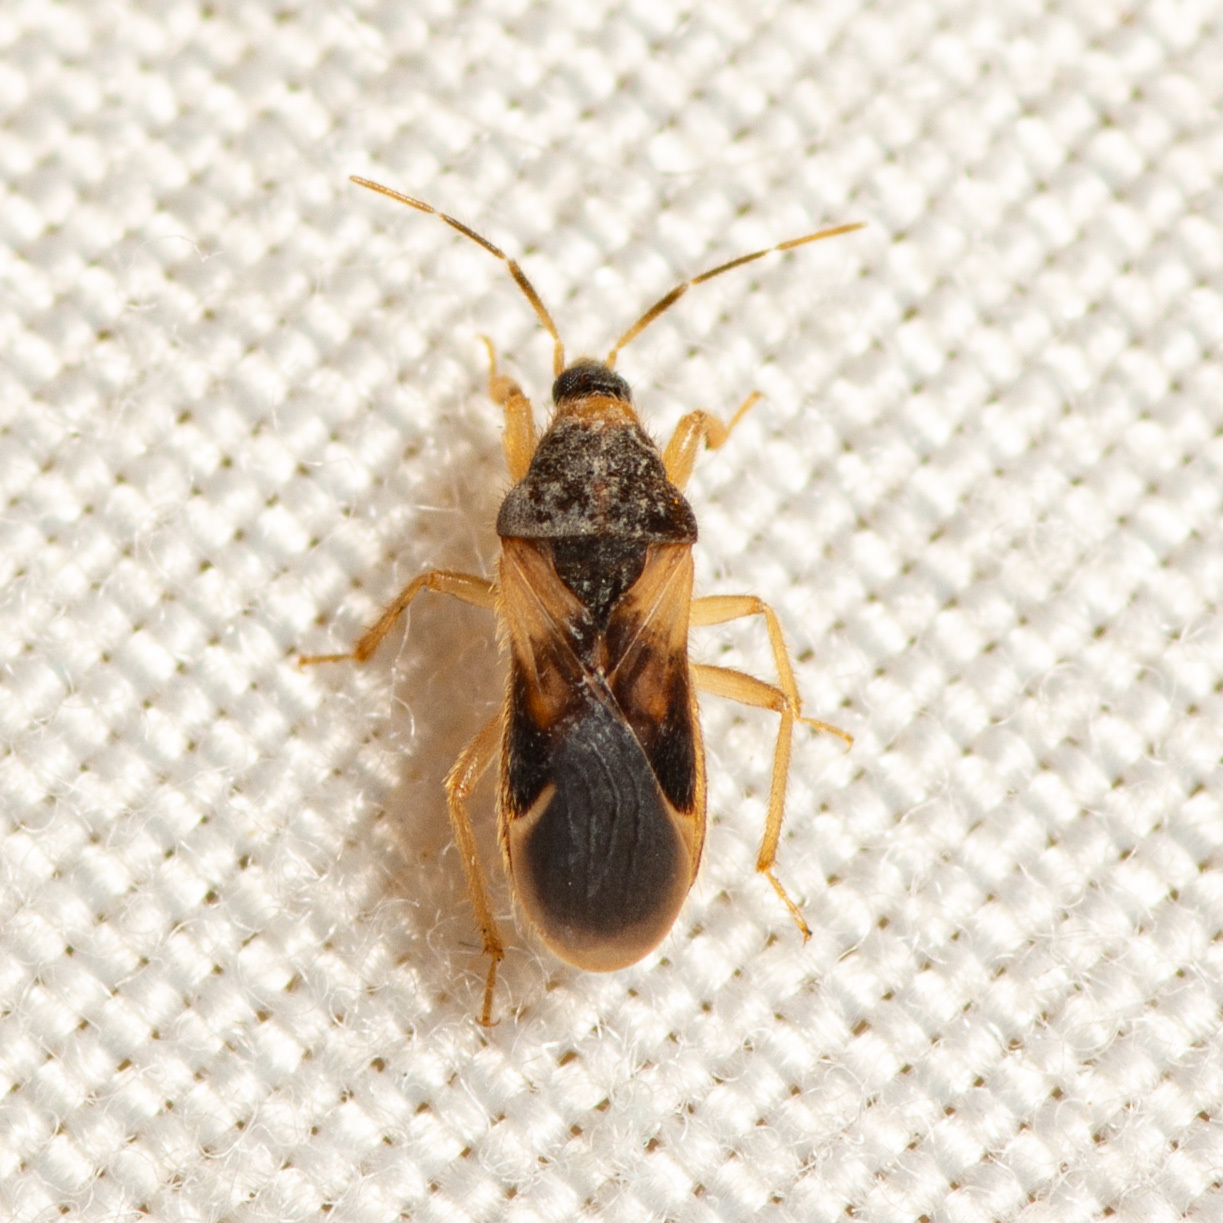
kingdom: Animalia
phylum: Arthropoda
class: Insecta
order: Hemiptera
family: Nabidae
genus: Phorticus
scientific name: Phorticus collaris
